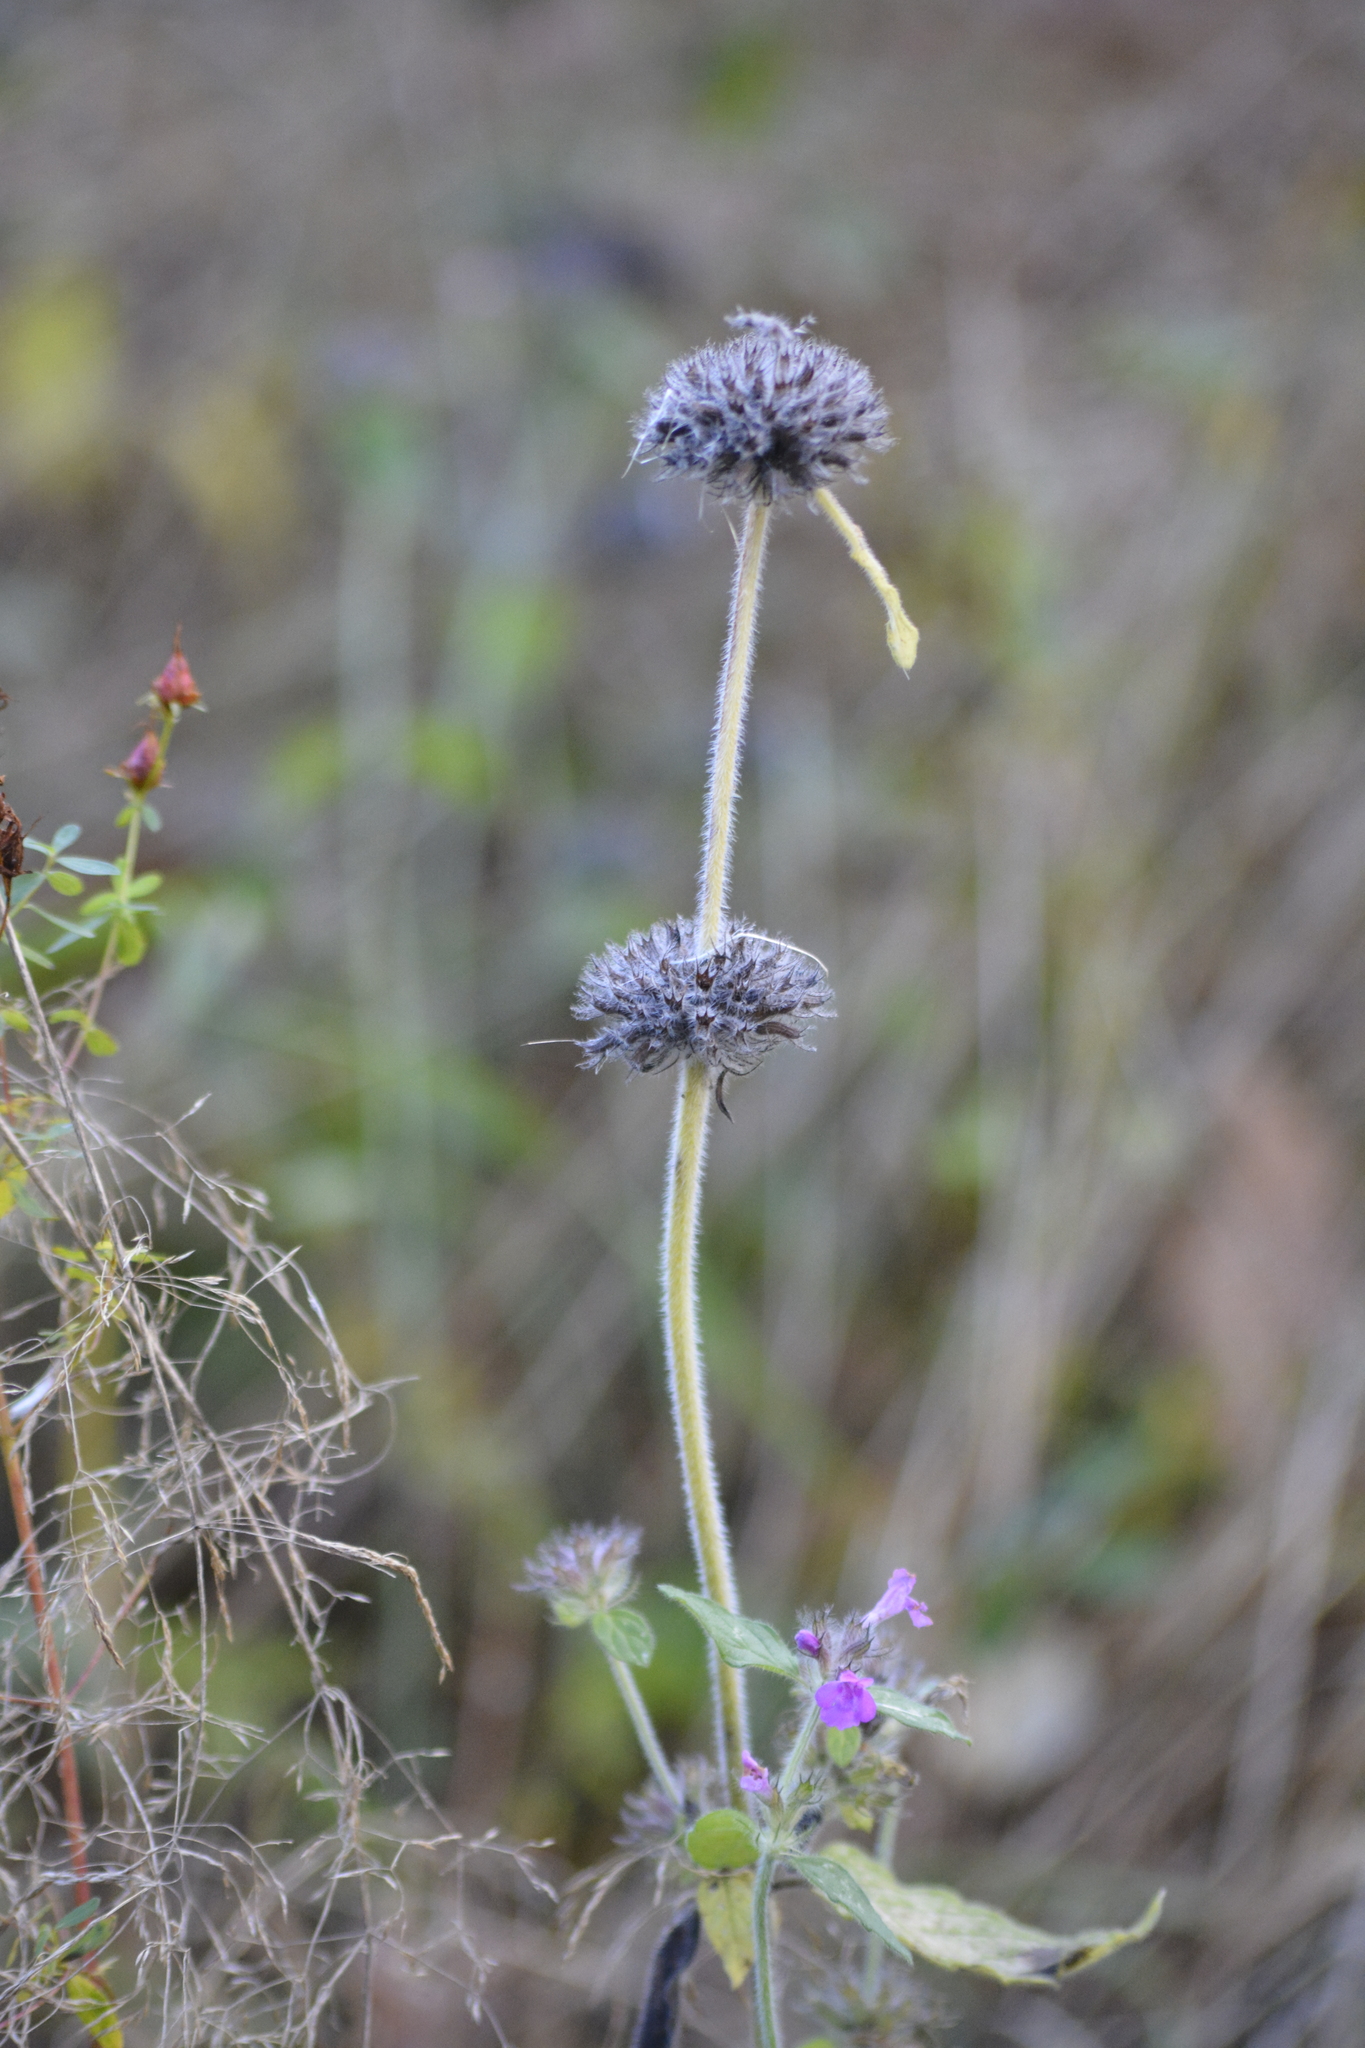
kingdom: Plantae
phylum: Tracheophyta
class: Magnoliopsida
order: Lamiales
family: Lamiaceae
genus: Clinopodium
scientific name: Clinopodium vulgare
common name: Wild basil
